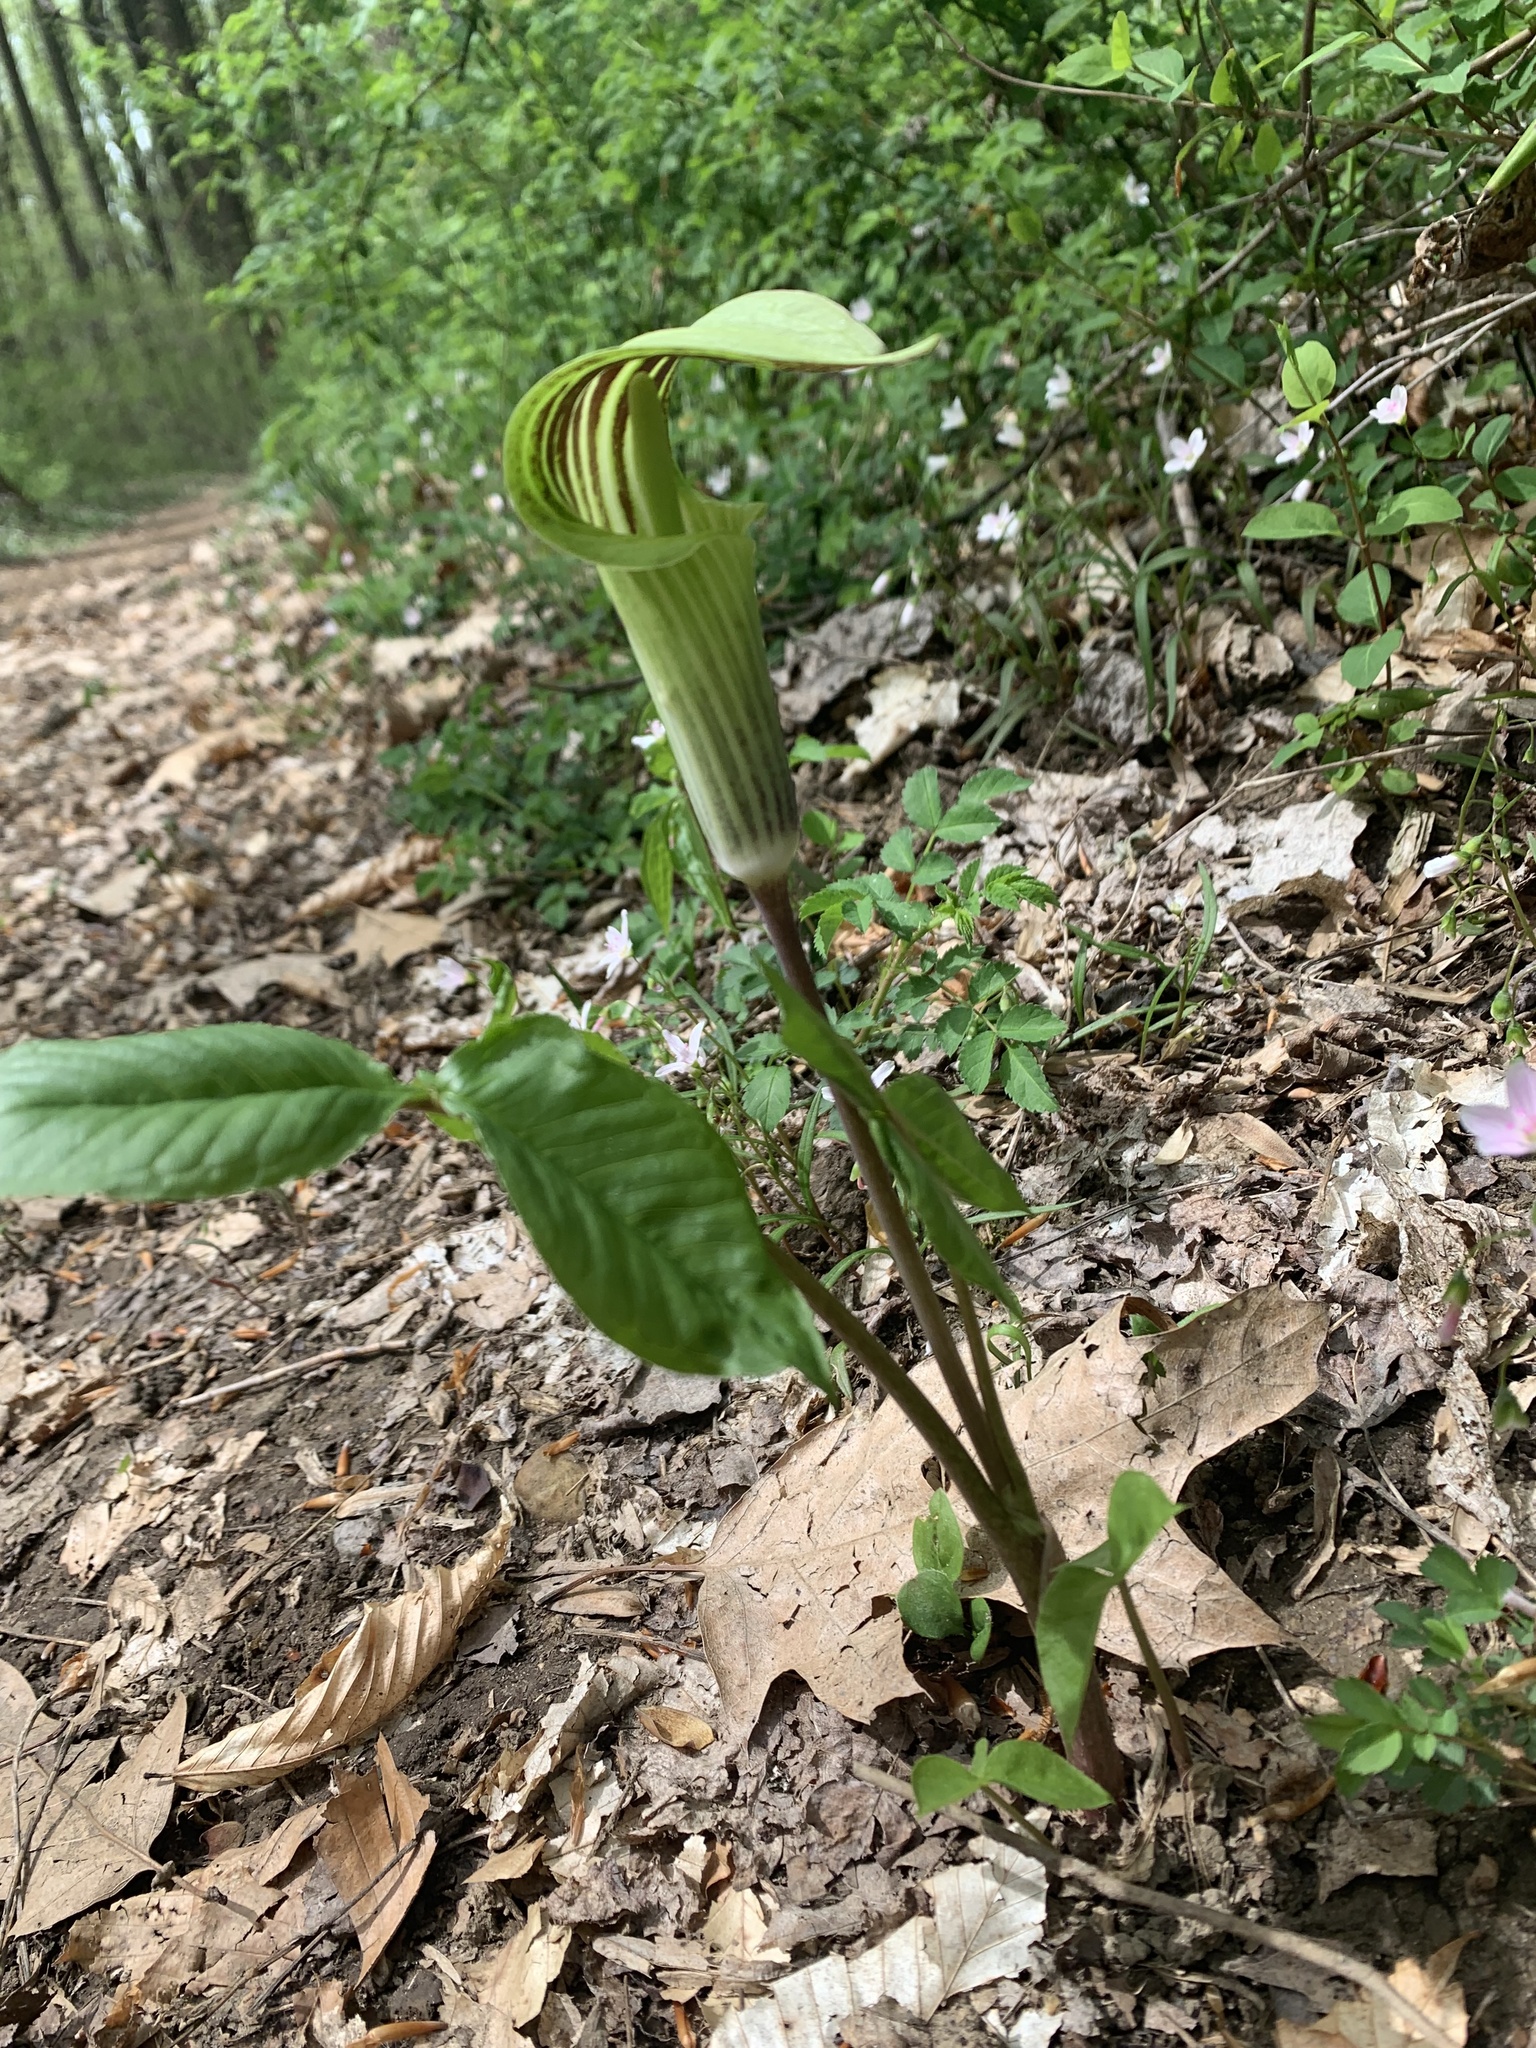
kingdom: Plantae
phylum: Tracheophyta
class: Liliopsida
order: Alismatales
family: Araceae
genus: Arisaema
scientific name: Arisaema triphyllum
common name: Jack-in-the-pulpit
